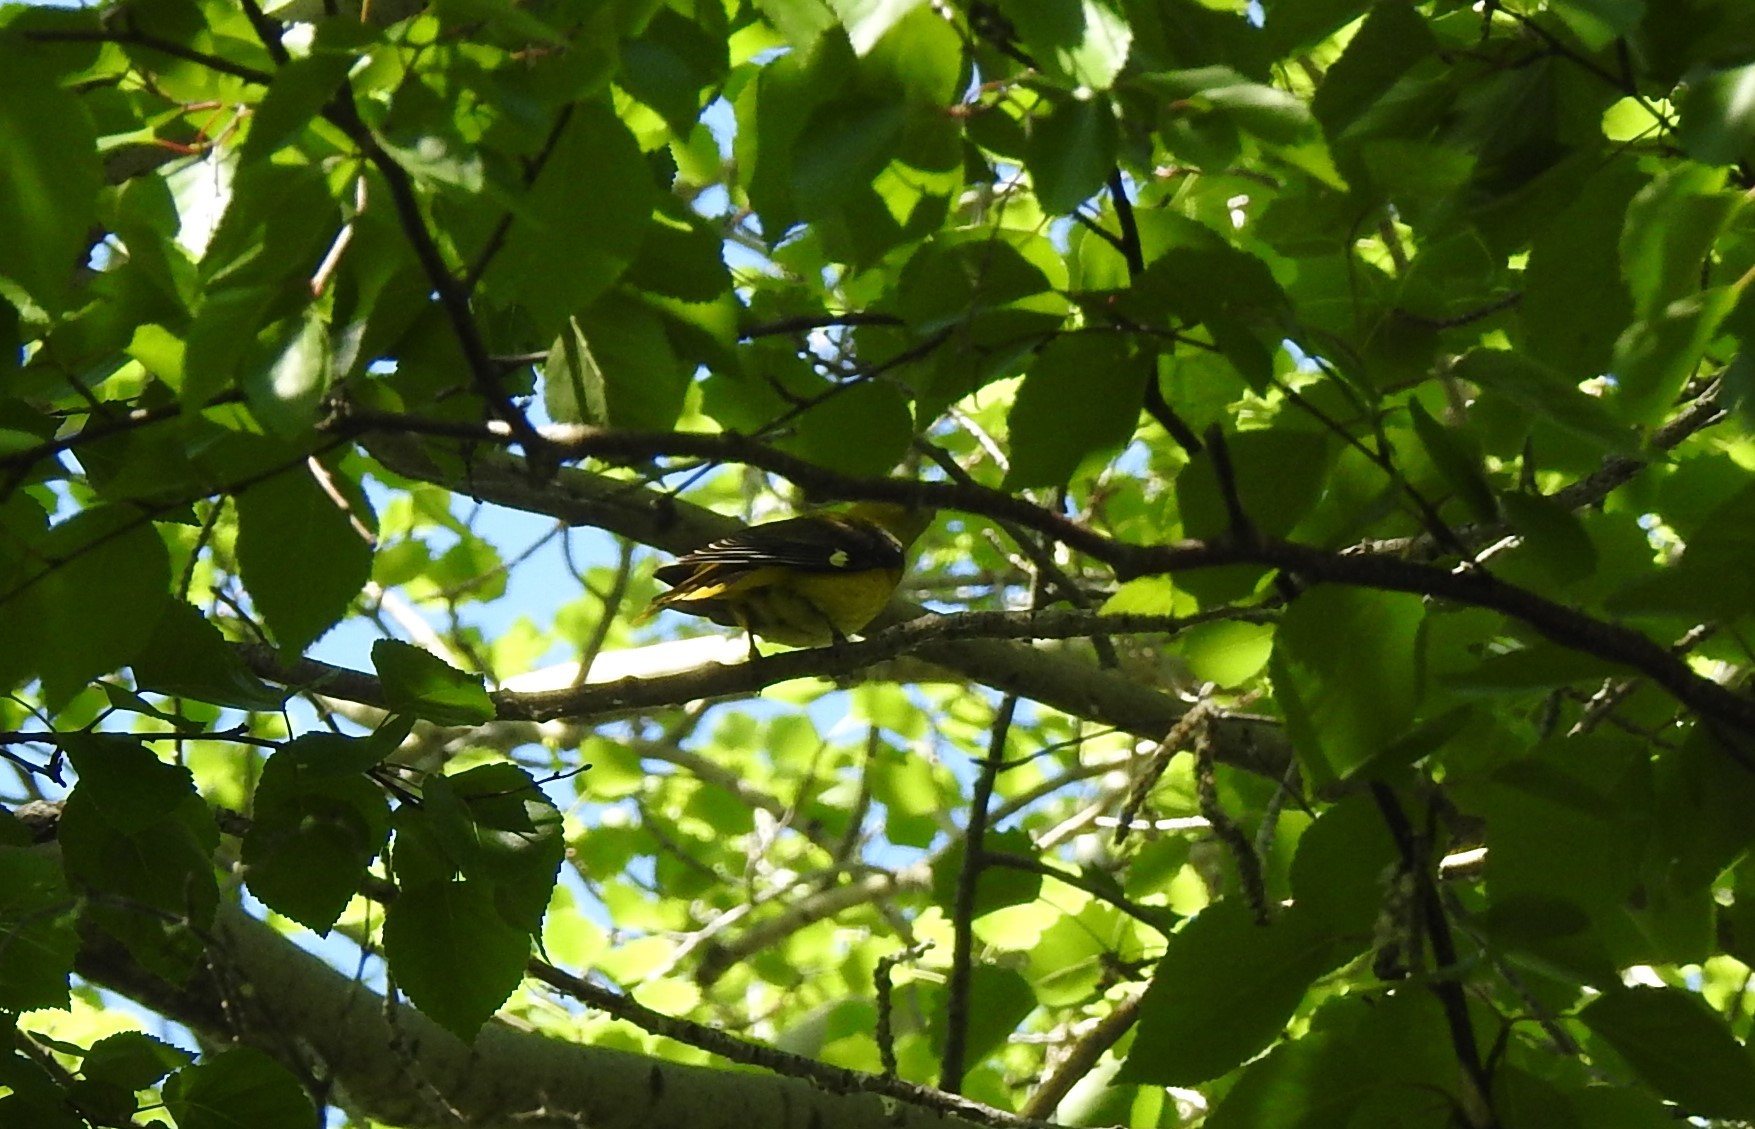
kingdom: Animalia
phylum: Chordata
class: Aves
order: Passeriformes
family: Oriolidae
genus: Oriolus
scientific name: Oriolus oriolus
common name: Eurasian golden oriole
